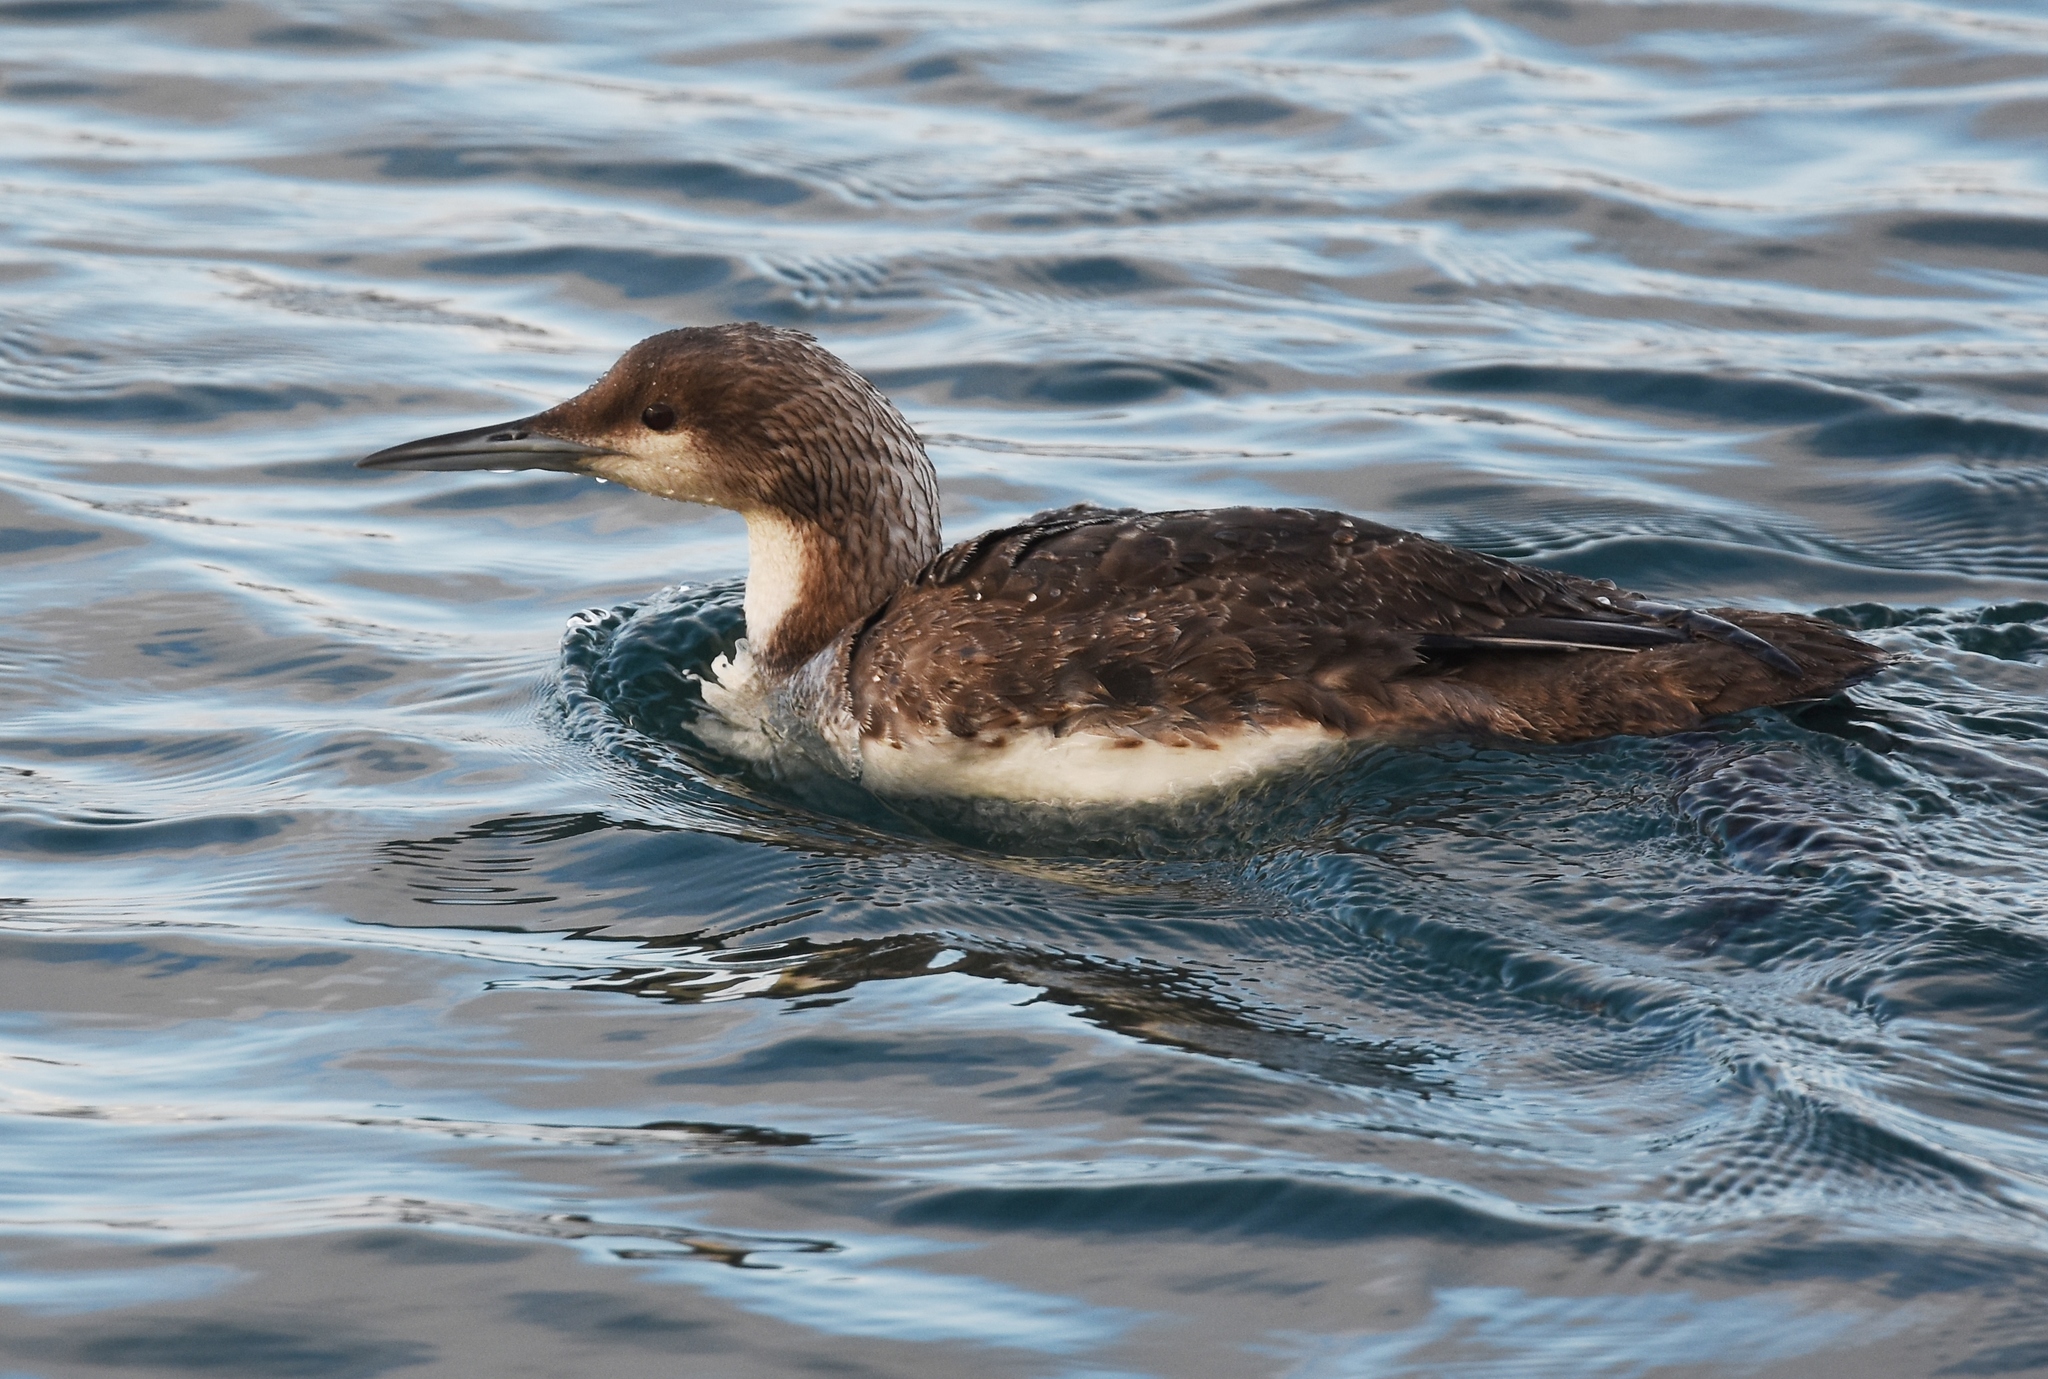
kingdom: Animalia
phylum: Chordata
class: Aves
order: Gaviiformes
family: Gaviidae
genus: Gavia
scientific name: Gavia pacifica
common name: Pacific loon
